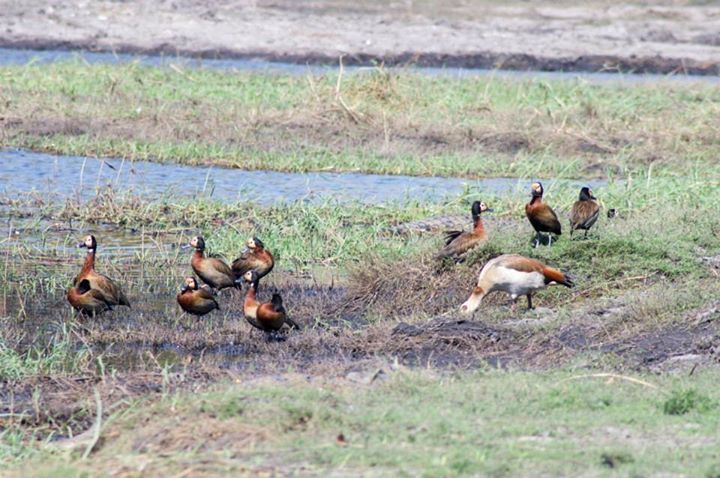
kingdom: Animalia
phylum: Chordata
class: Aves
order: Anseriformes
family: Anatidae
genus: Dendrocygna
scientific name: Dendrocygna viduata
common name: White-faced whistling duck
